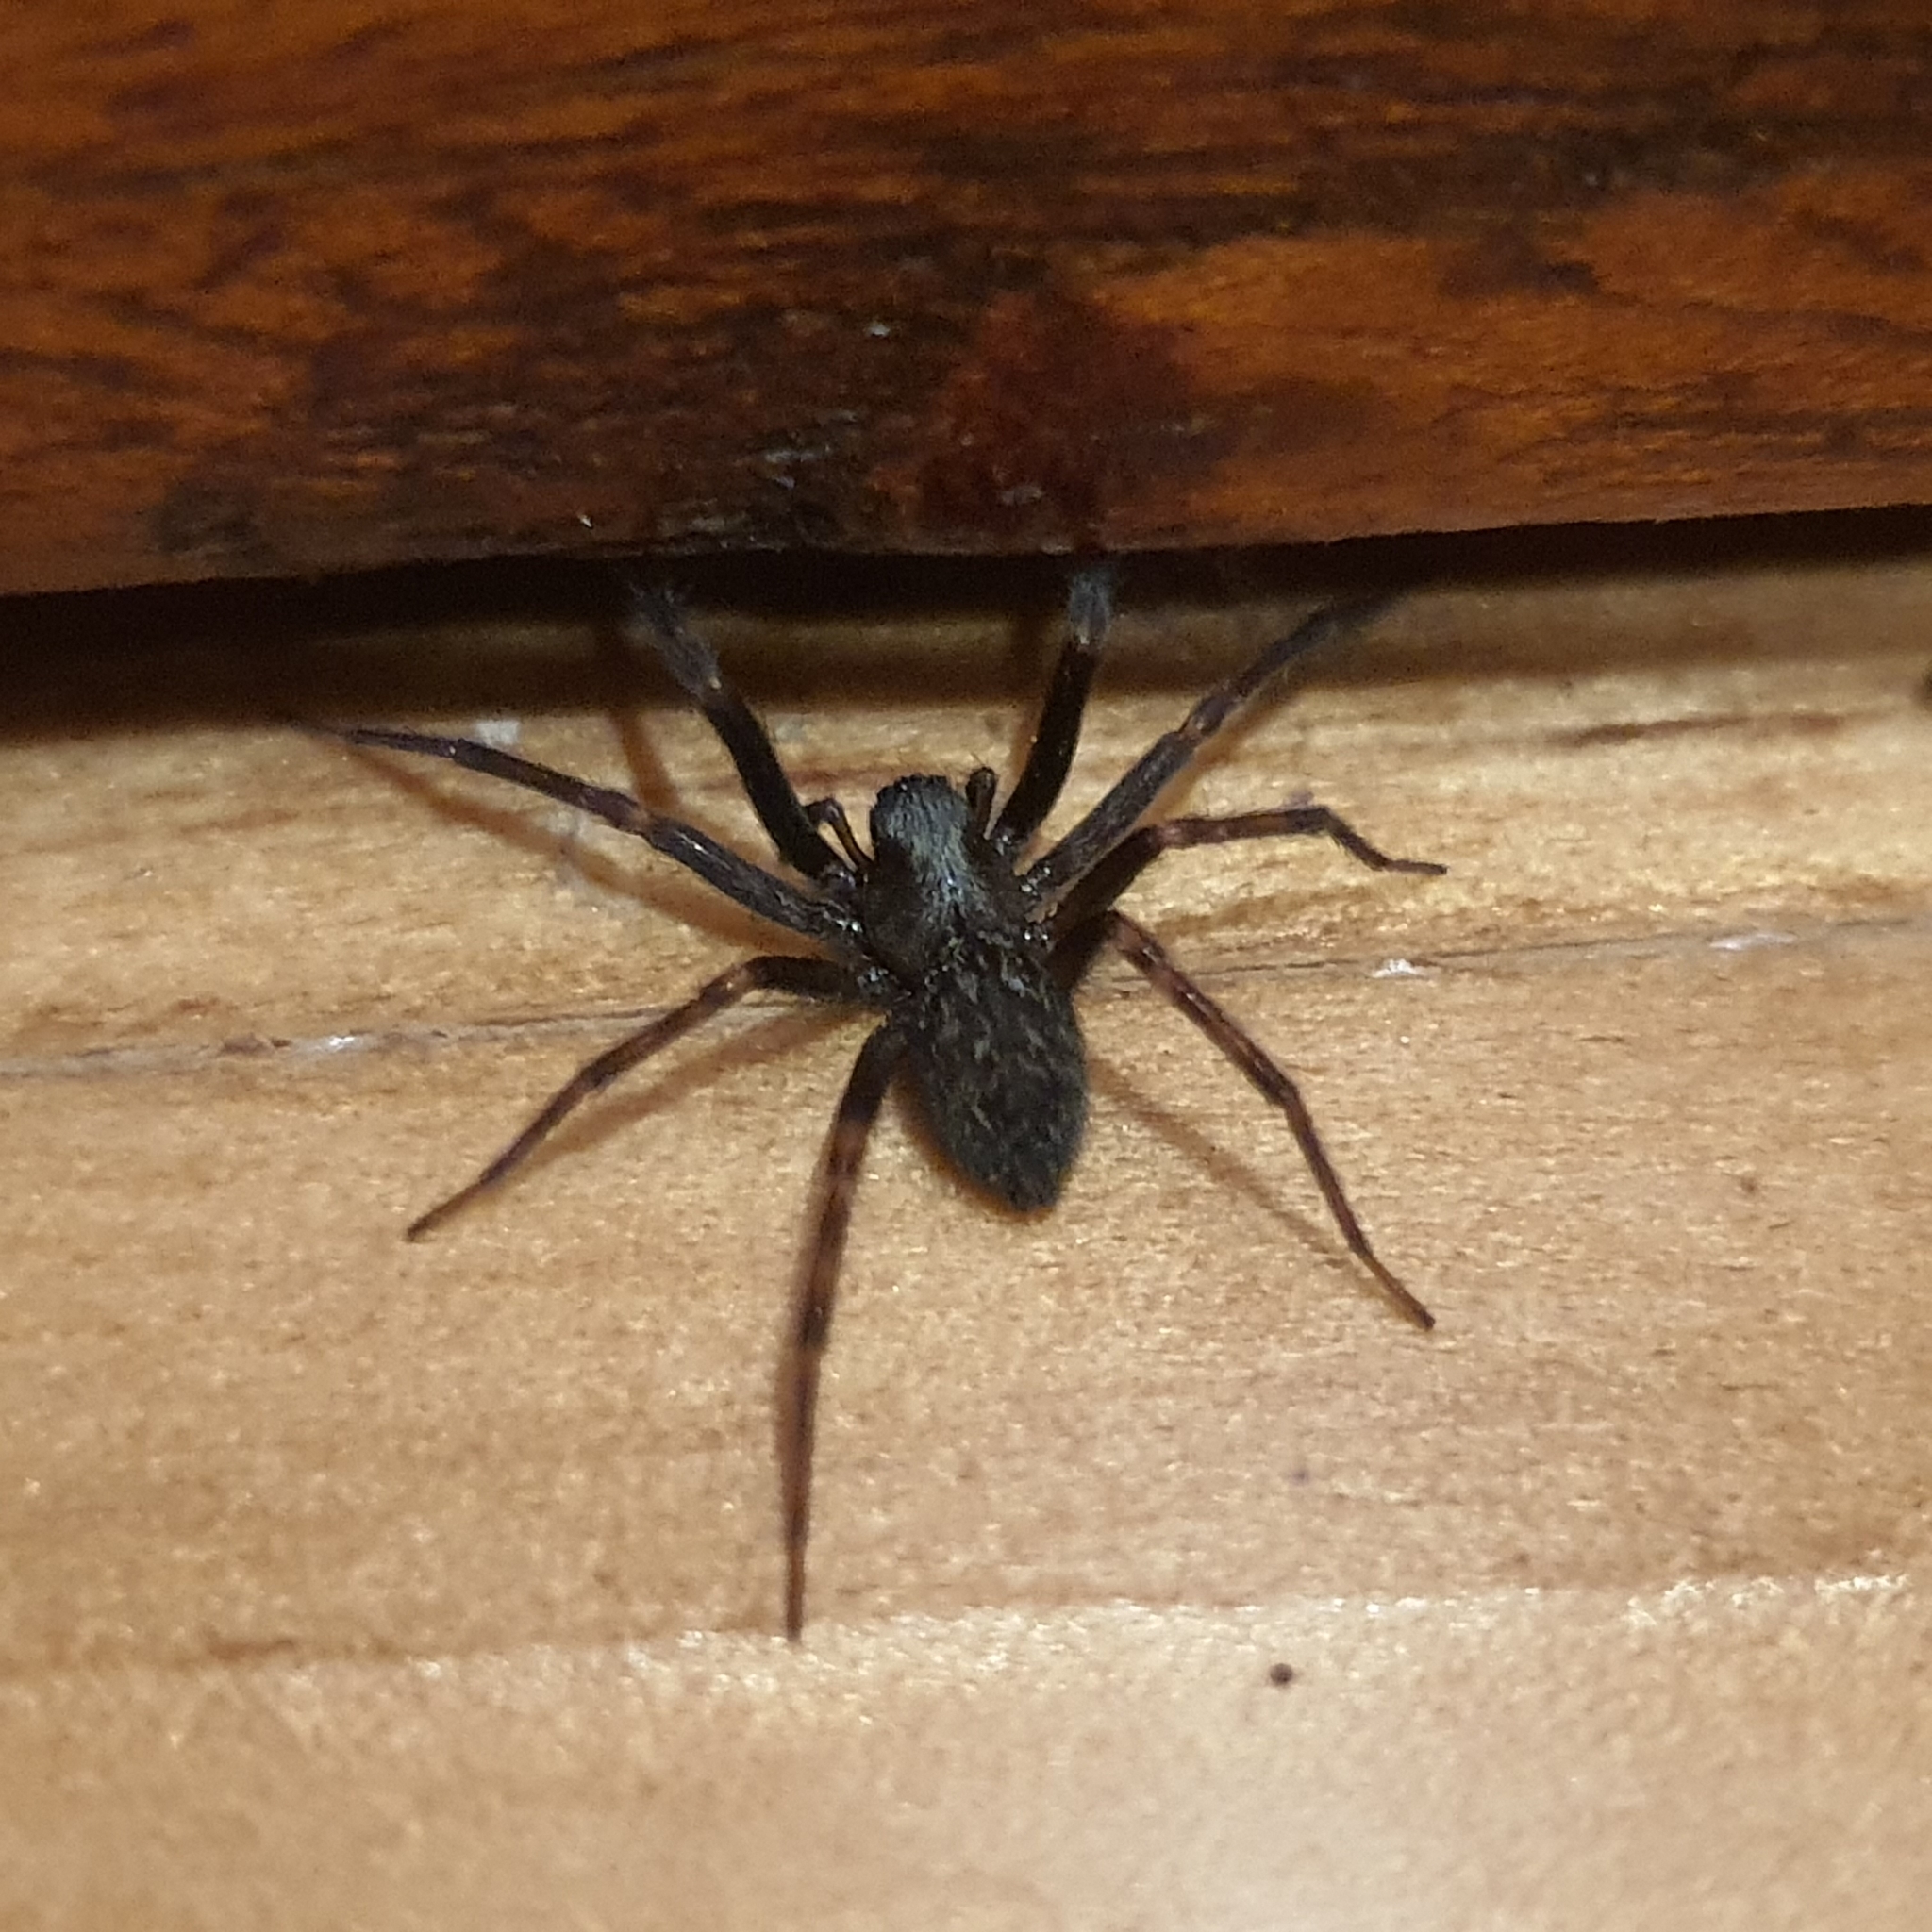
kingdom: Animalia
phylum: Arthropoda
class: Arachnida
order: Araneae
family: Desidae
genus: Badumna
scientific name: Badumna longinqua
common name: Gray house spider
